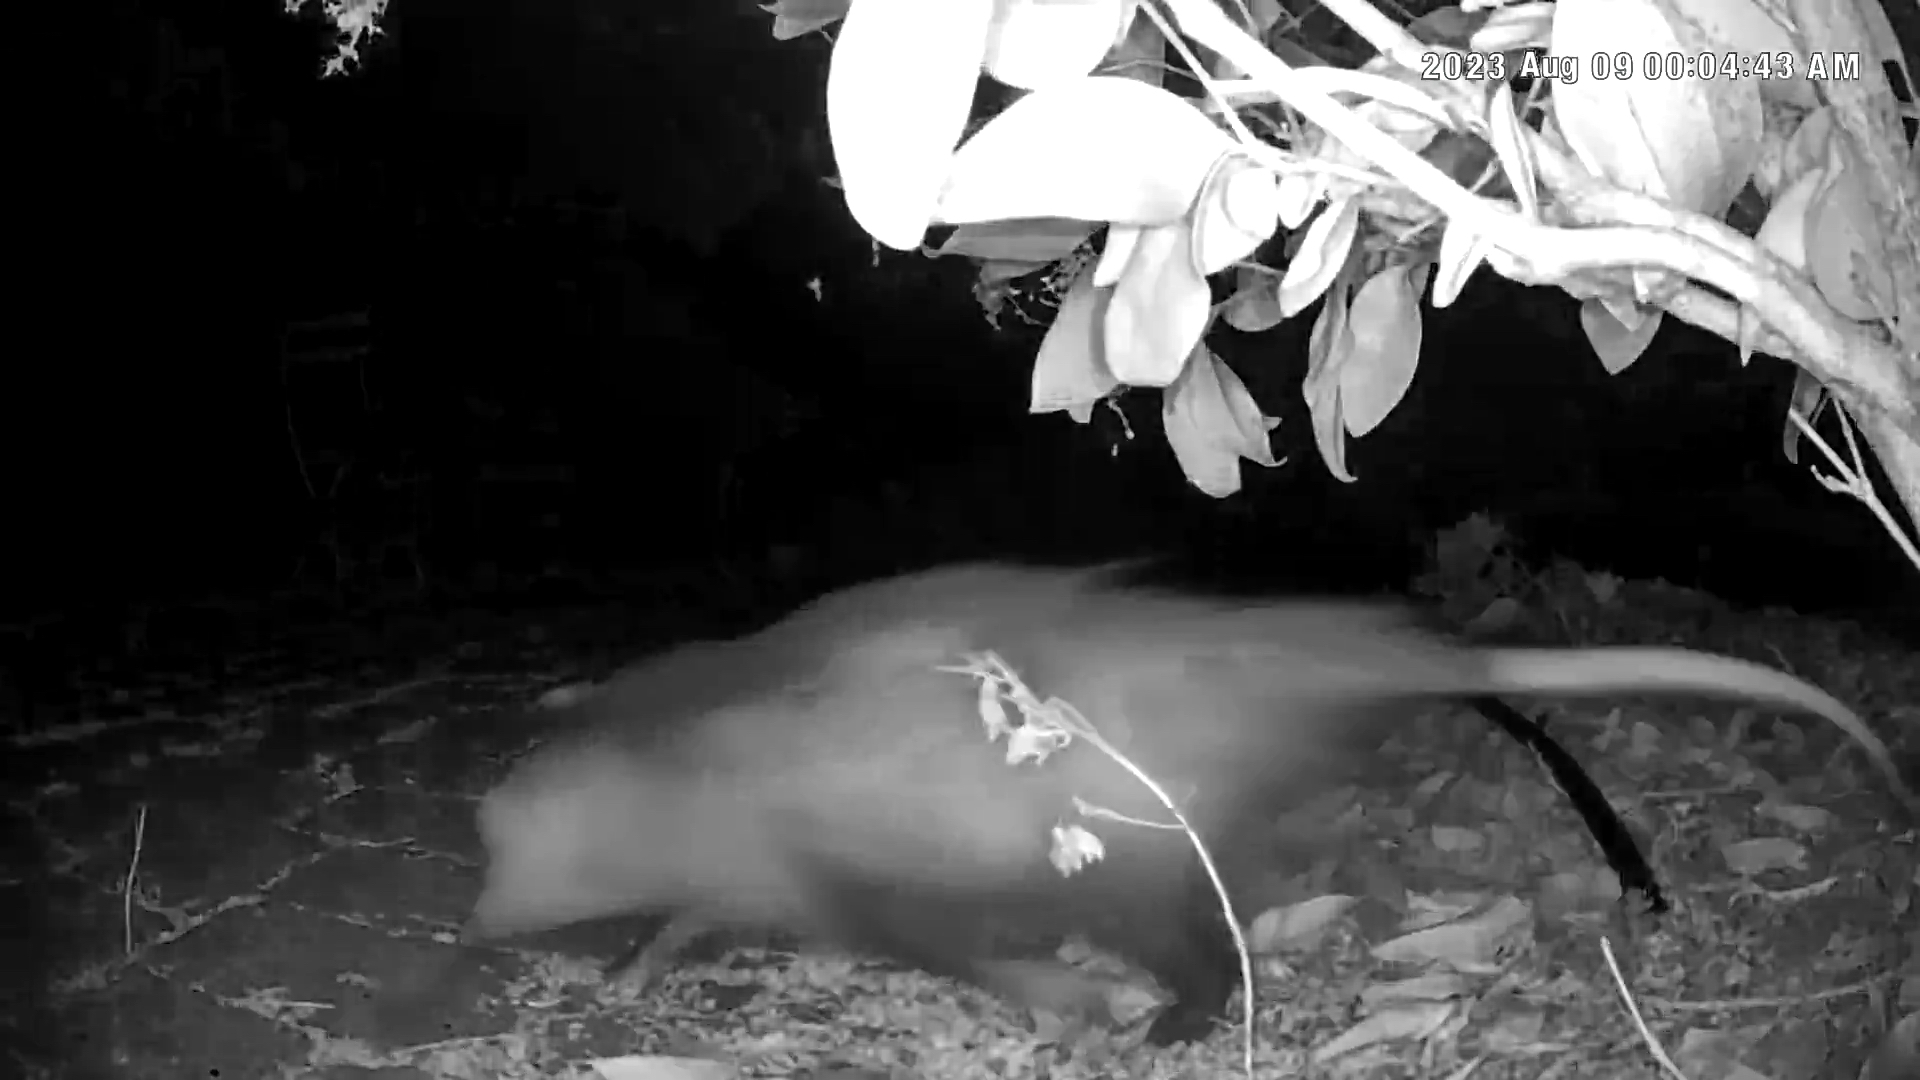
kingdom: Animalia
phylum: Chordata
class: Mammalia
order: Didelphimorphia
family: Didelphidae
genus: Didelphis
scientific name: Didelphis virginiana
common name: Virginia opossum
